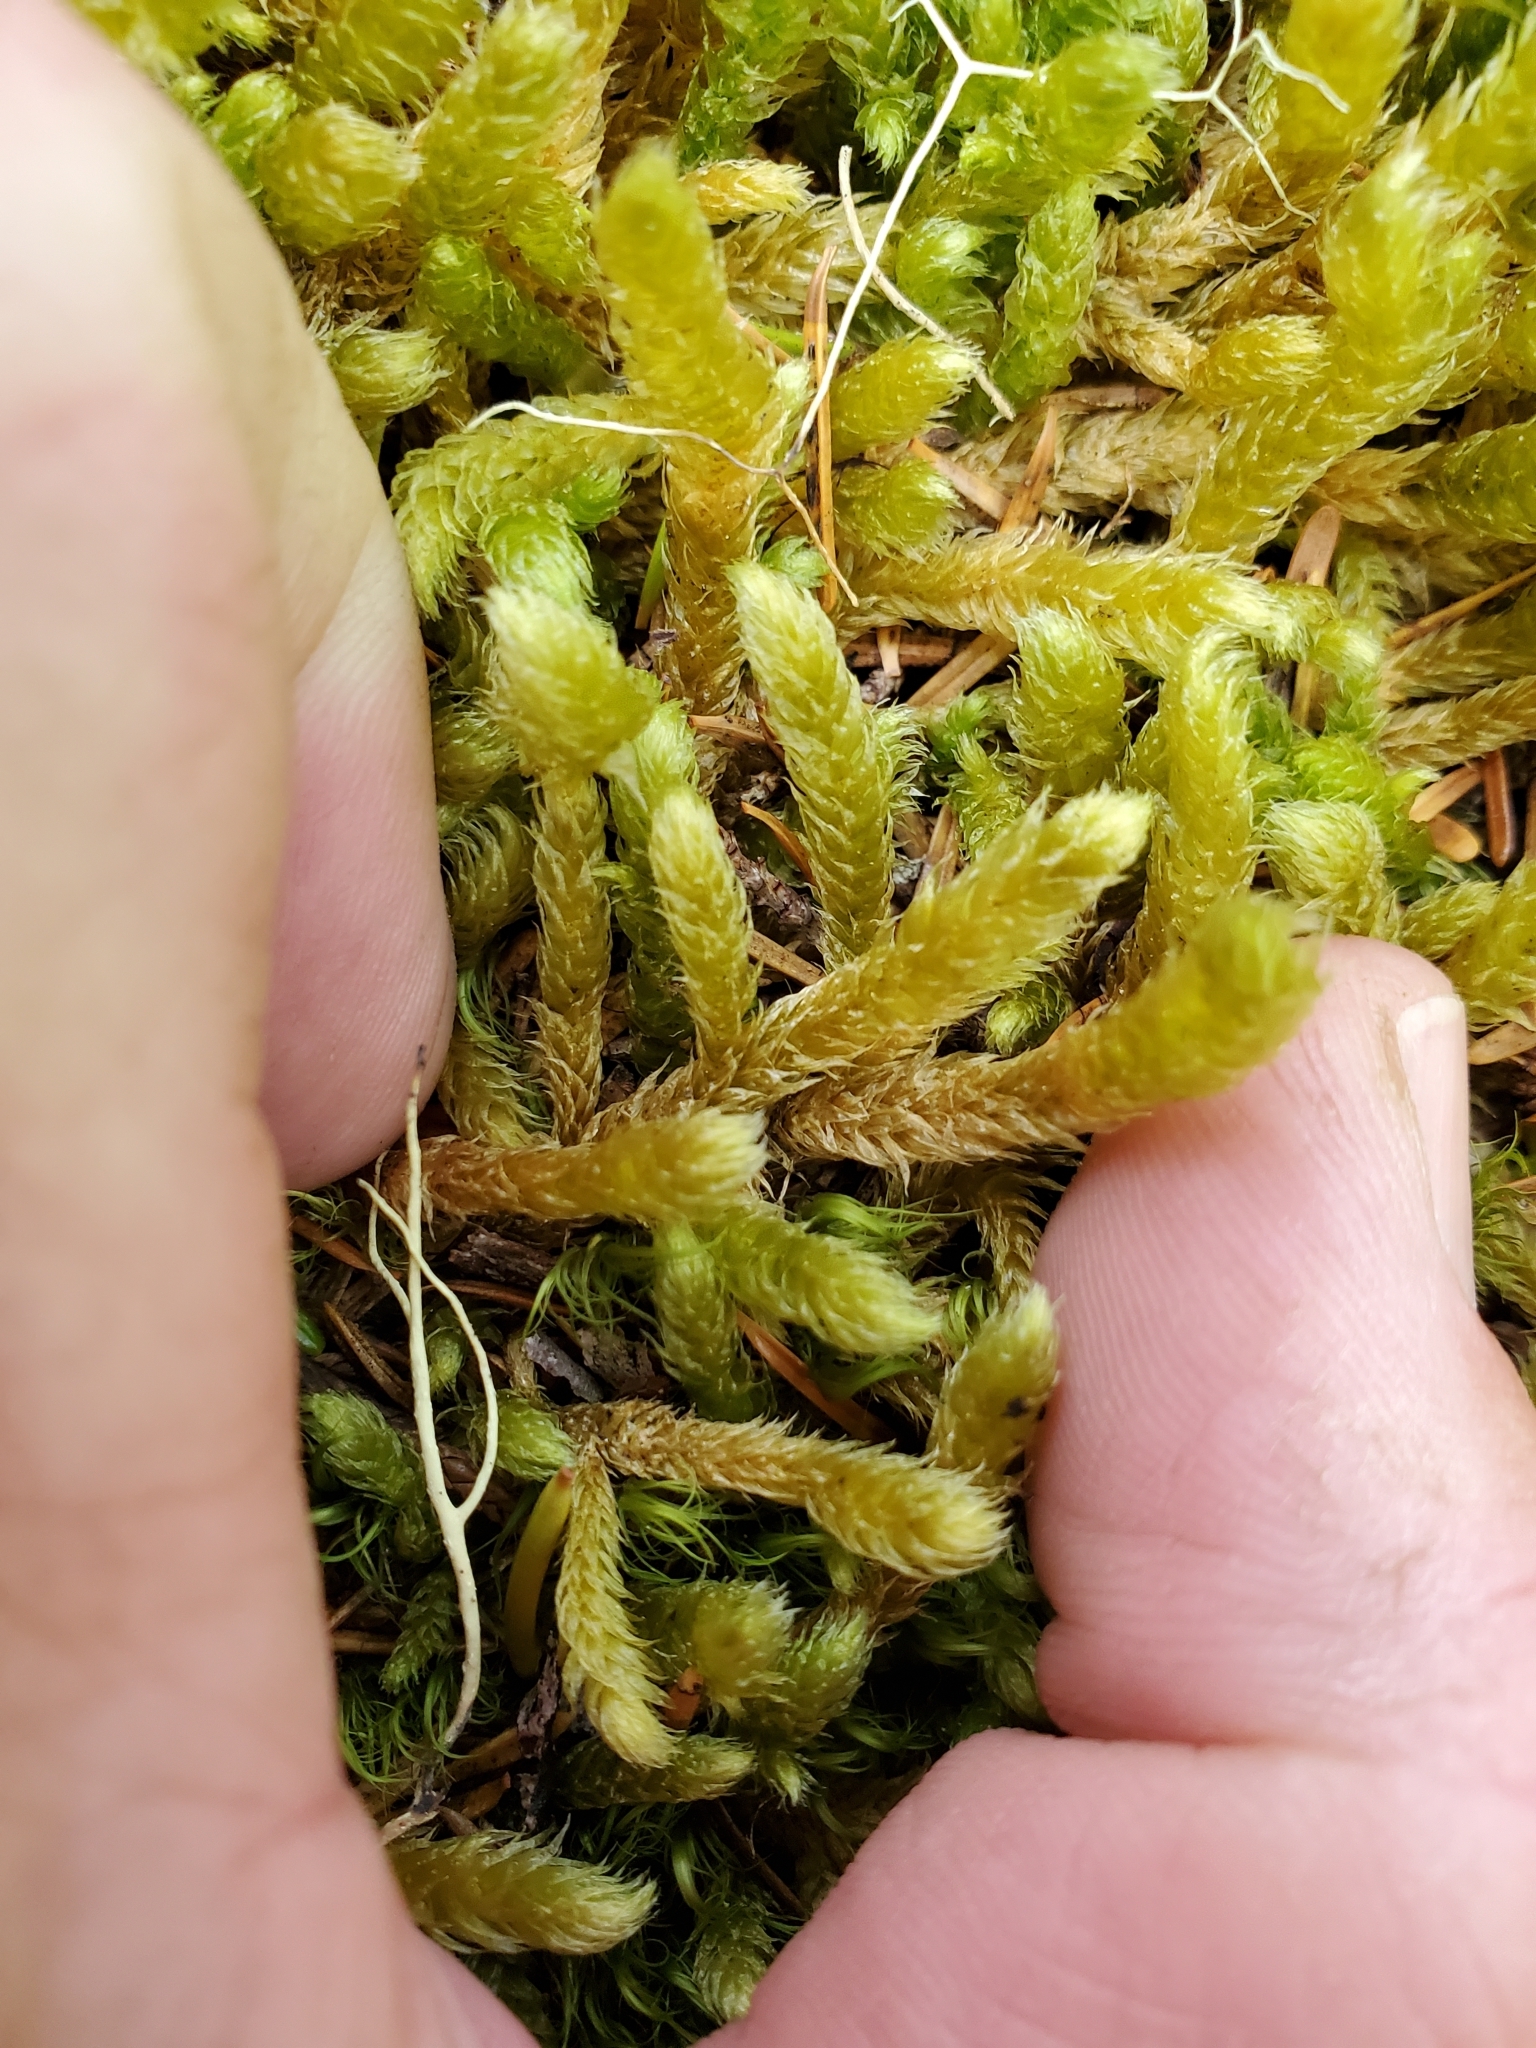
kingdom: Plantae
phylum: Bryophyta
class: Bryopsida
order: Hypnales
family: Hylocomiaceae
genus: Rhytidiopsis
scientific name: Rhytidiopsis robusta
